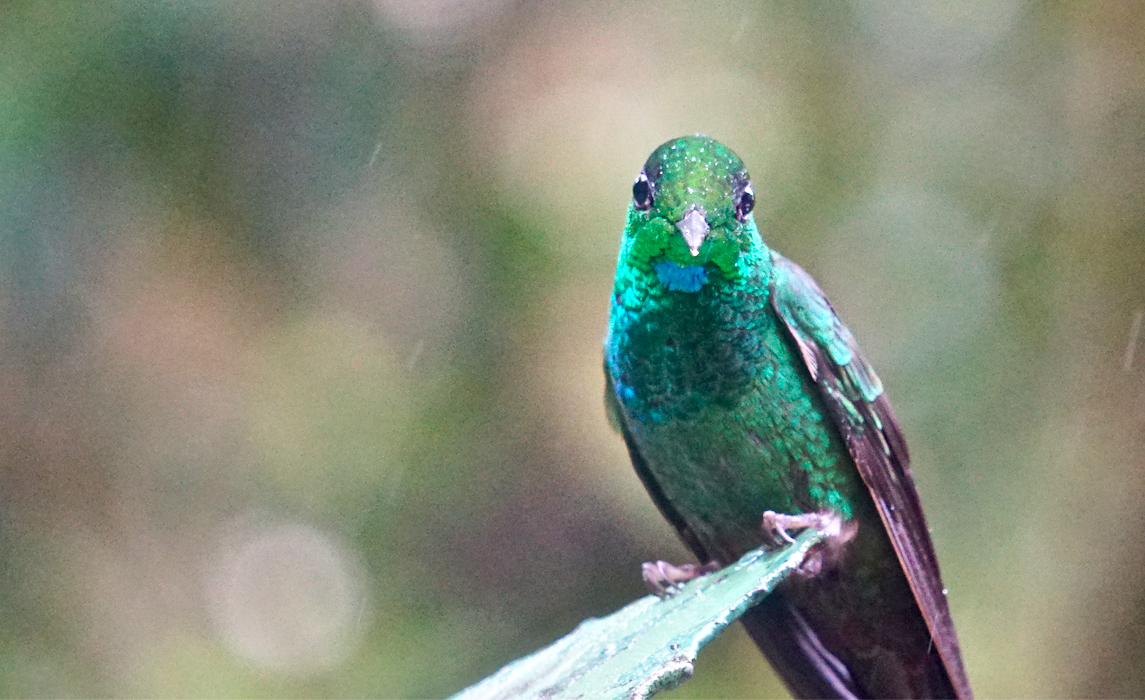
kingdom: Animalia
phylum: Chordata
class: Aves
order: Apodiformes
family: Trochilidae
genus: Heliodoxa
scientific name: Heliodoxa jacula
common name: Green-crowned brilliant
